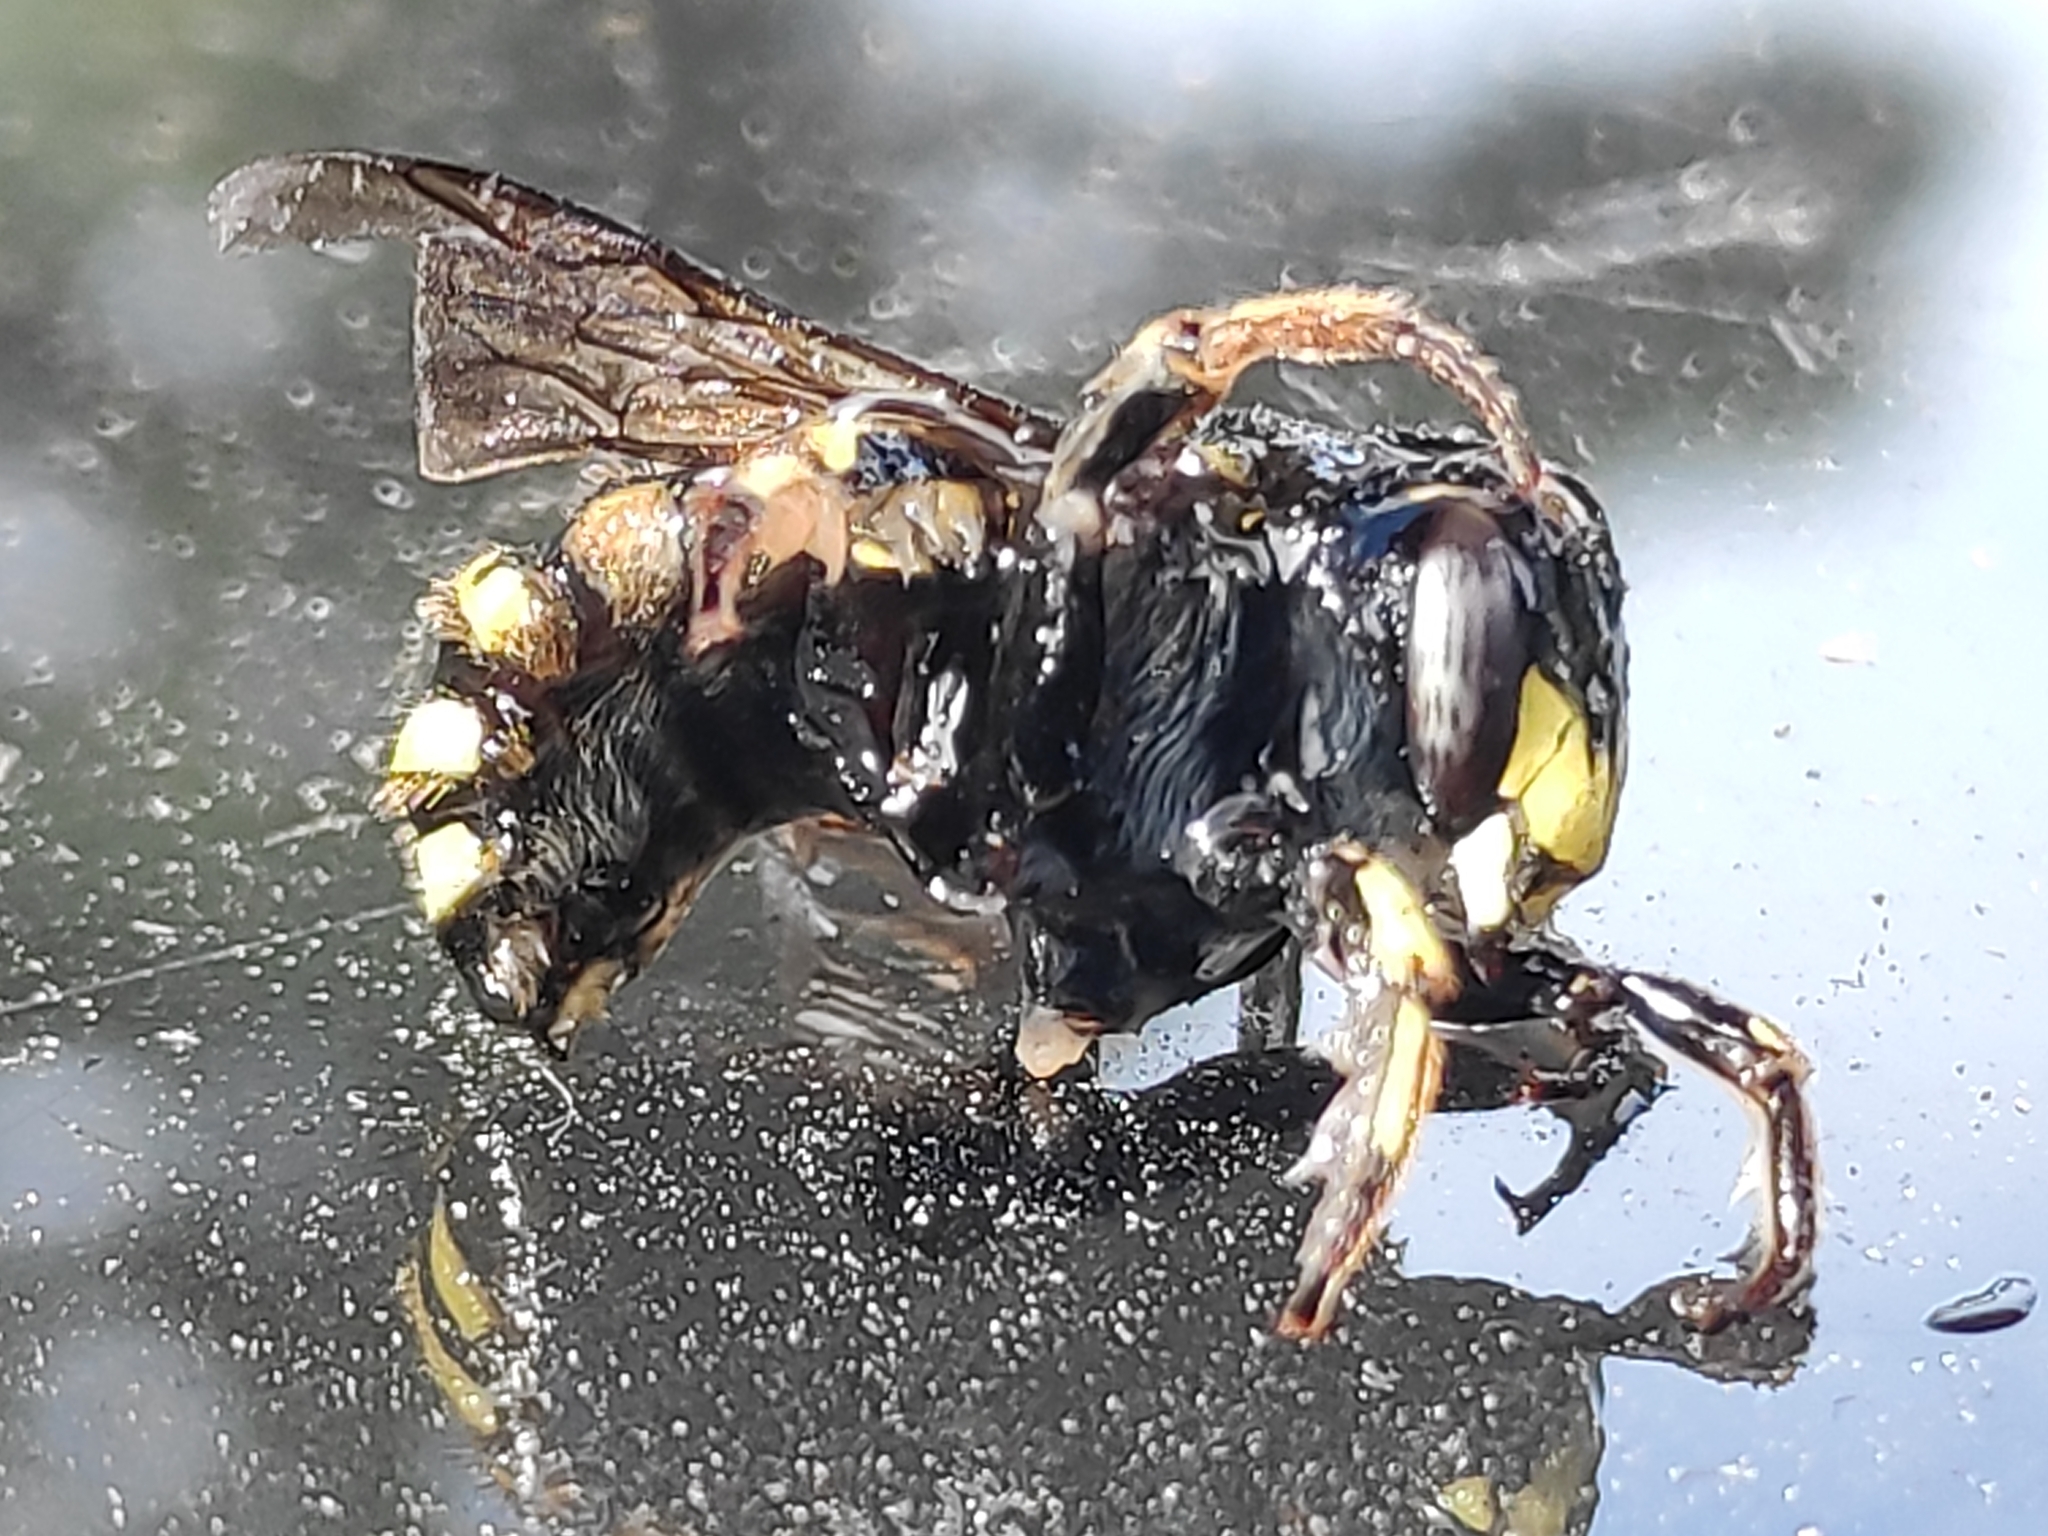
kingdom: Animalia
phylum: Arthropoda
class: Insecta
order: Hymenoptera
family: Megachilidae
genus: Anthidium
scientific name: Anthidium manicatum
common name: Wool carder bee
